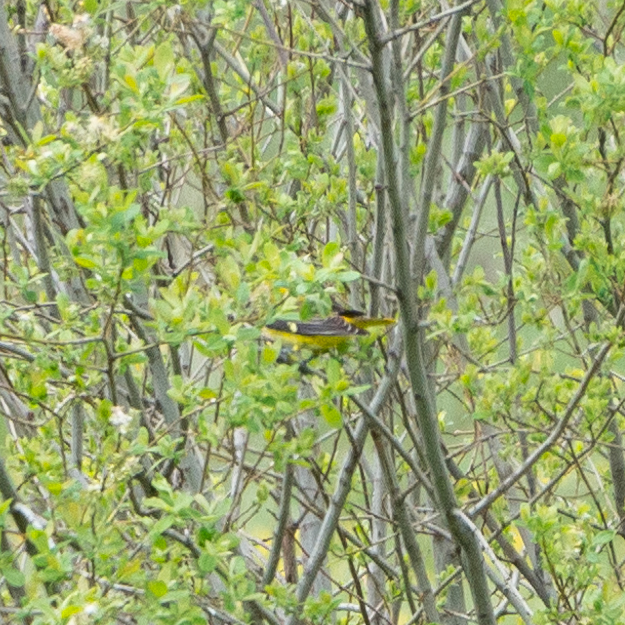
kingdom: Animalia
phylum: Chordata
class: Aves
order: Passeriformes
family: Oriolidae
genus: Oriolus
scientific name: Oriolus oriolus
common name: Eurasian golden oriole
